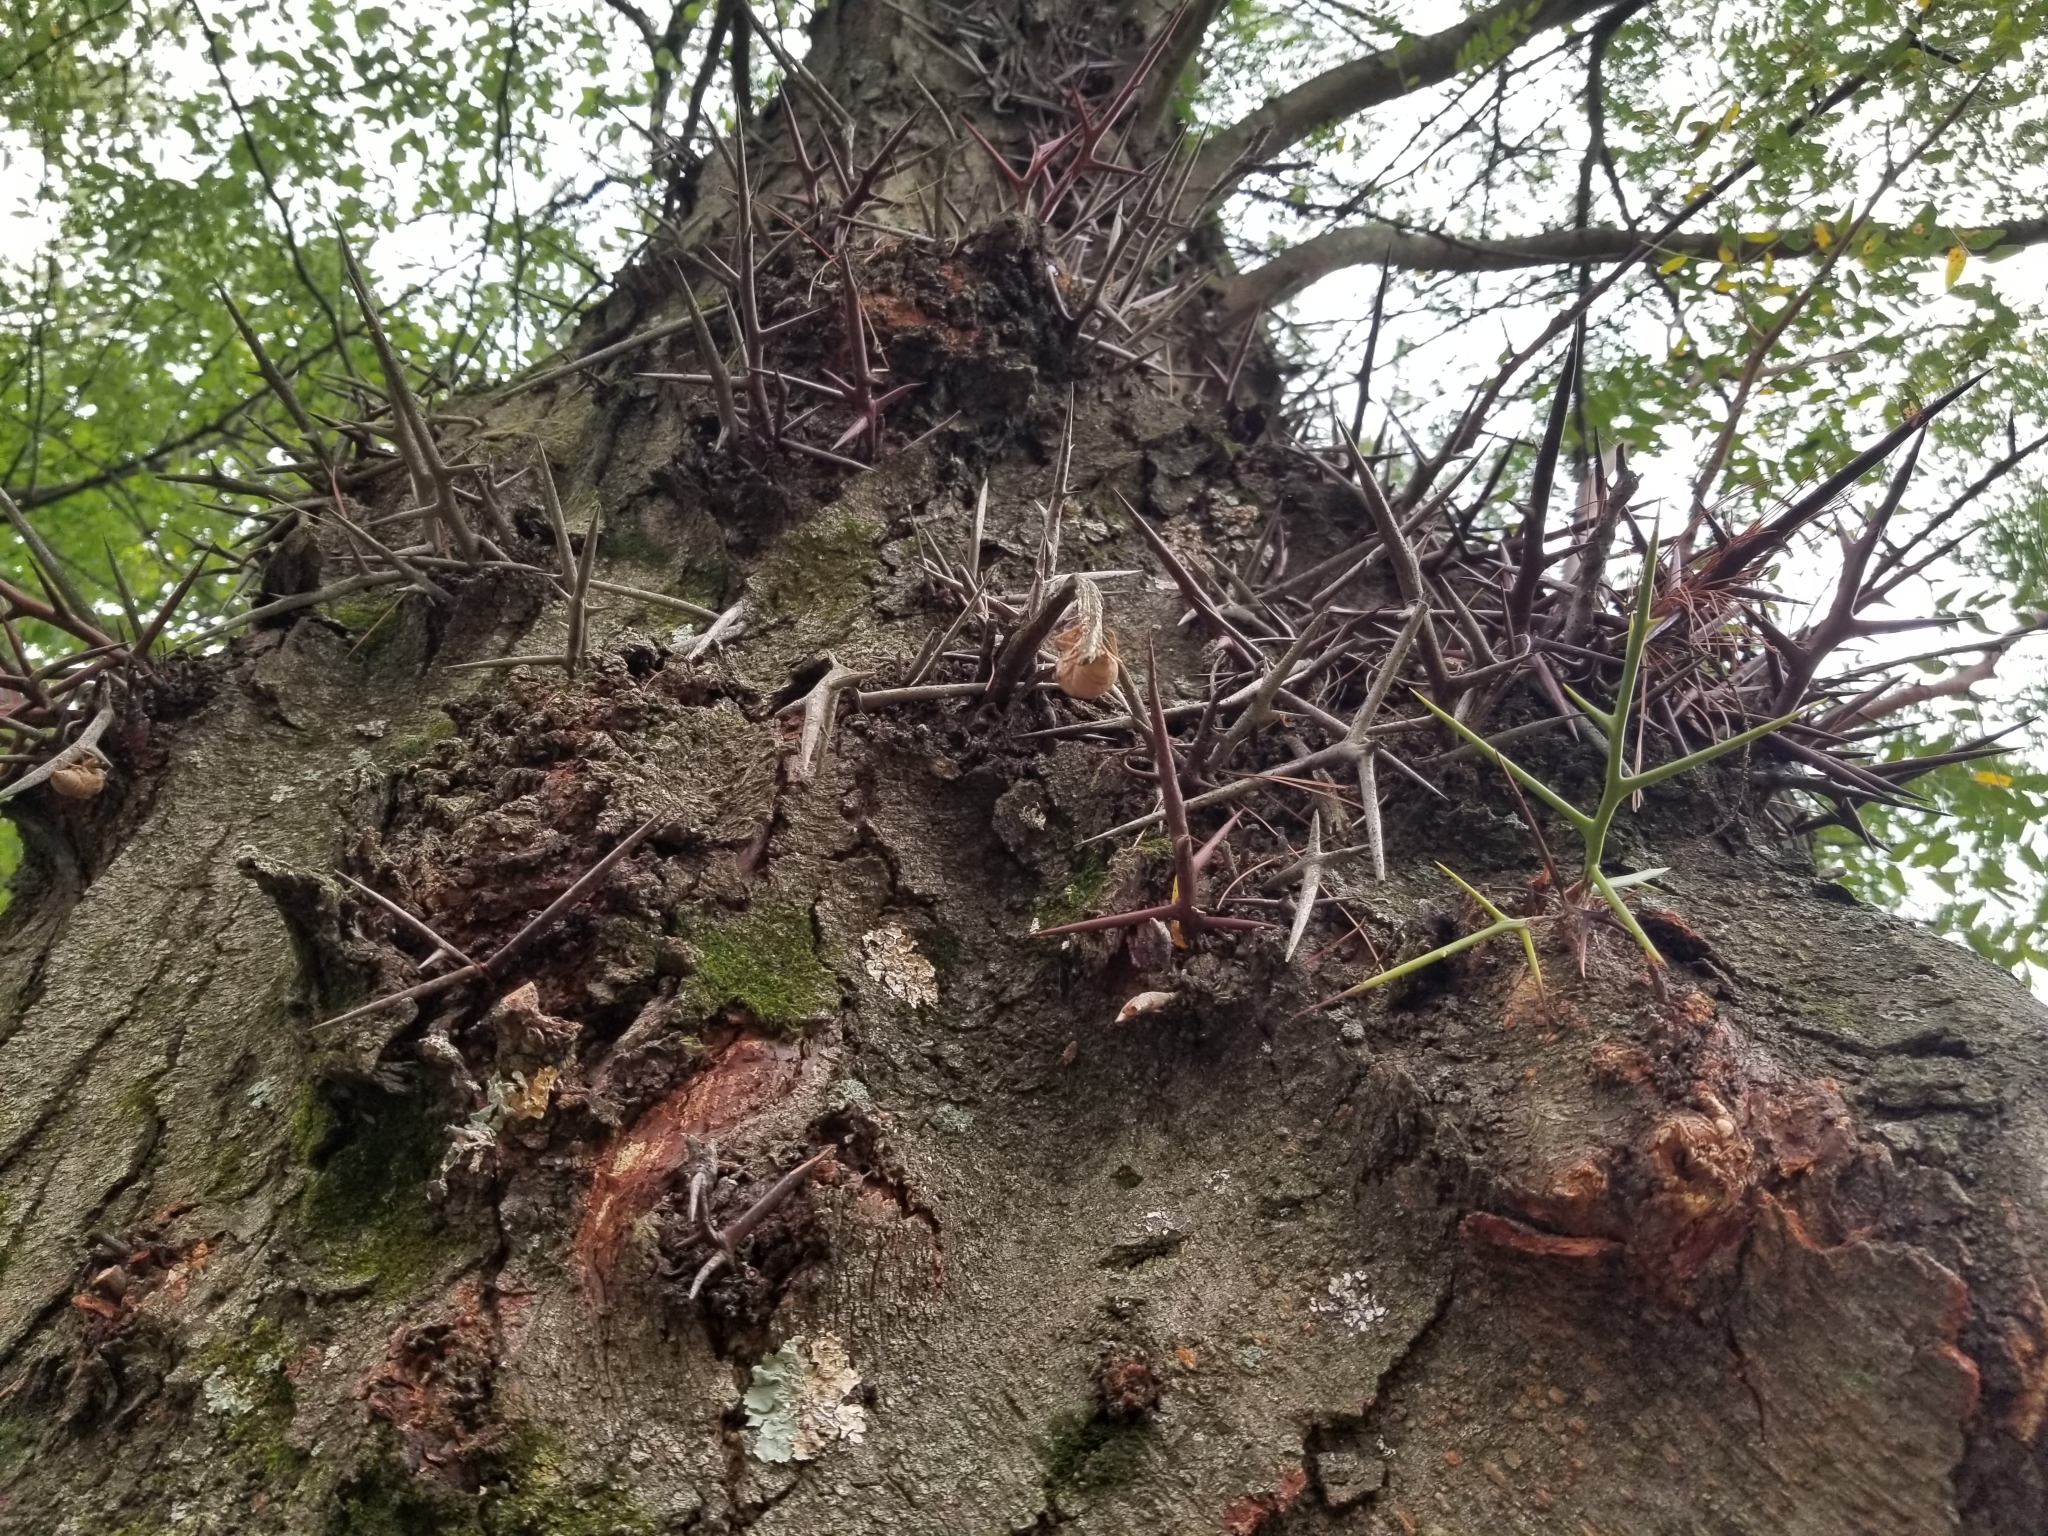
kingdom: Plantae
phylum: Tracheophyta
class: Magnoliopsida
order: Fabales
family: Fabaceae
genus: Gleditsia
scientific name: Gleditsia triacanthos
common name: Common honeylocust
